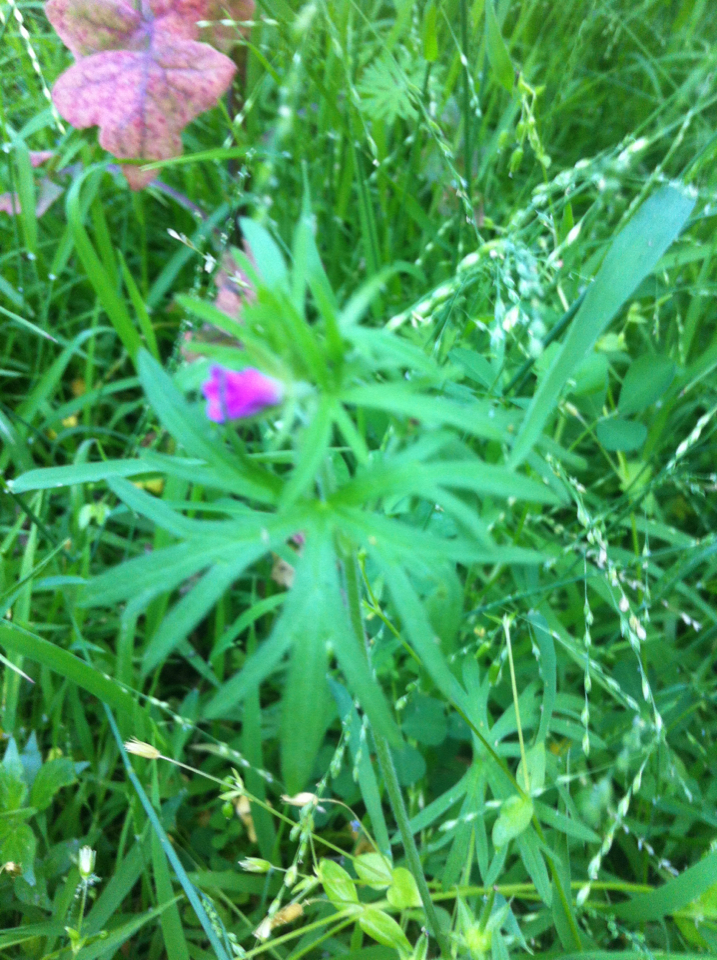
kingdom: Plantae
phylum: Tracheophyta
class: Magnoliopsida
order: Geraniales
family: Geraniaceae
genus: Geranium
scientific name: Geranium dissectum
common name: Cut-leaved crane's-bill
